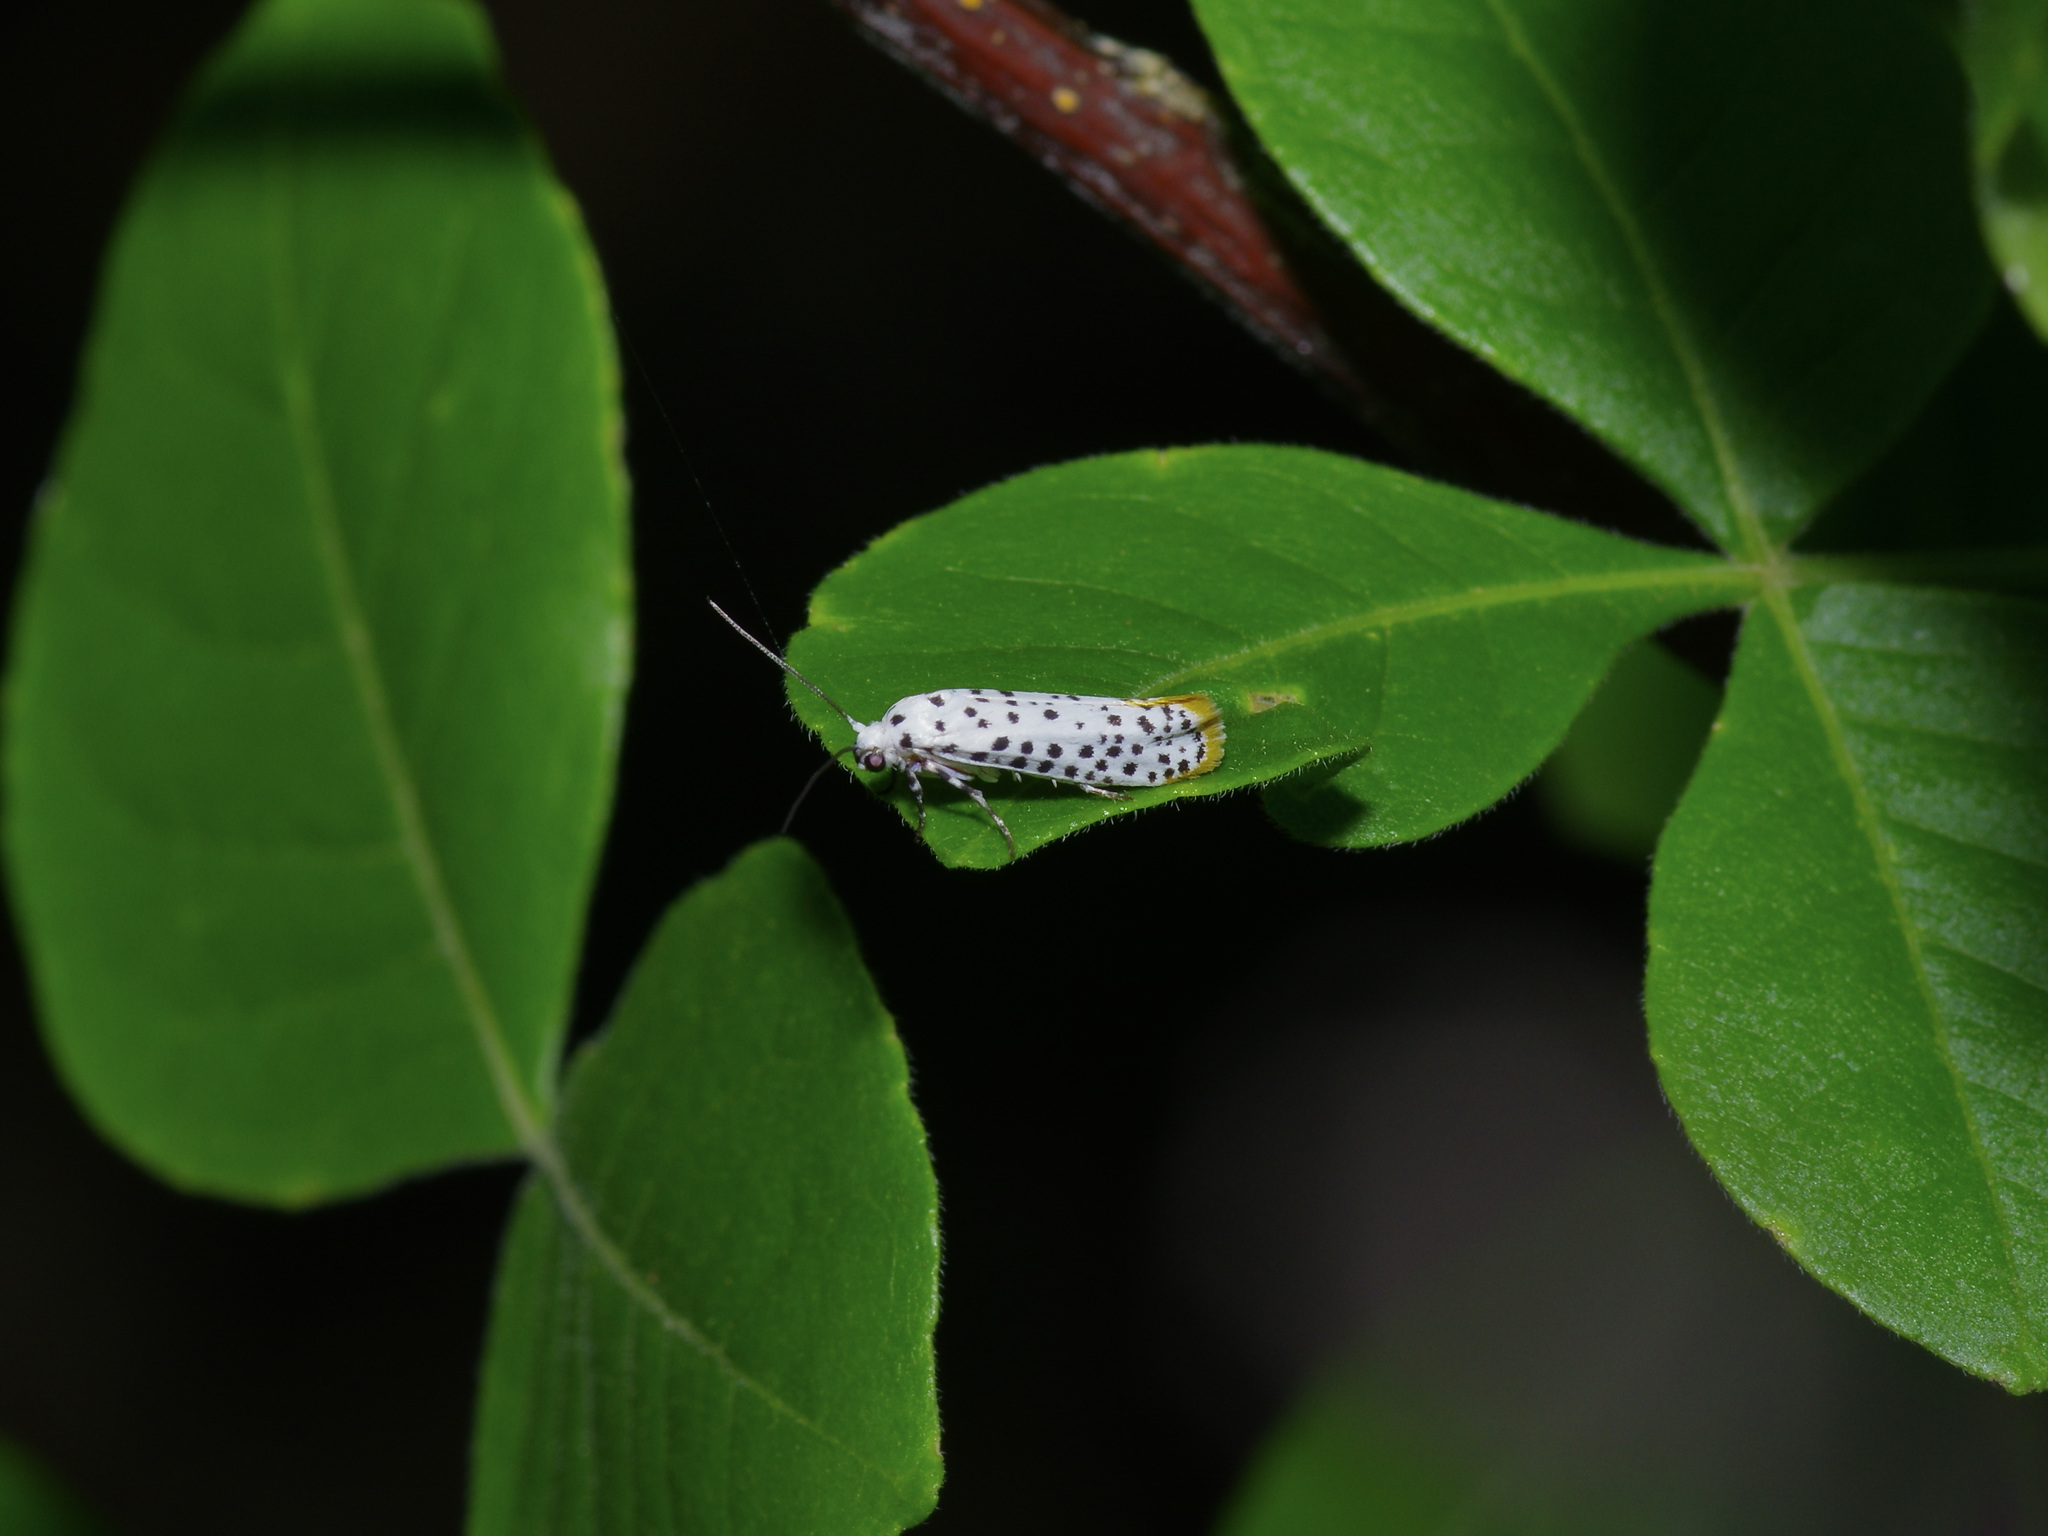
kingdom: Animalia
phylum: Arthropoda
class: Insecta
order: Lepidoptera
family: Praydidae
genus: Prays
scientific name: Prays atomocella
